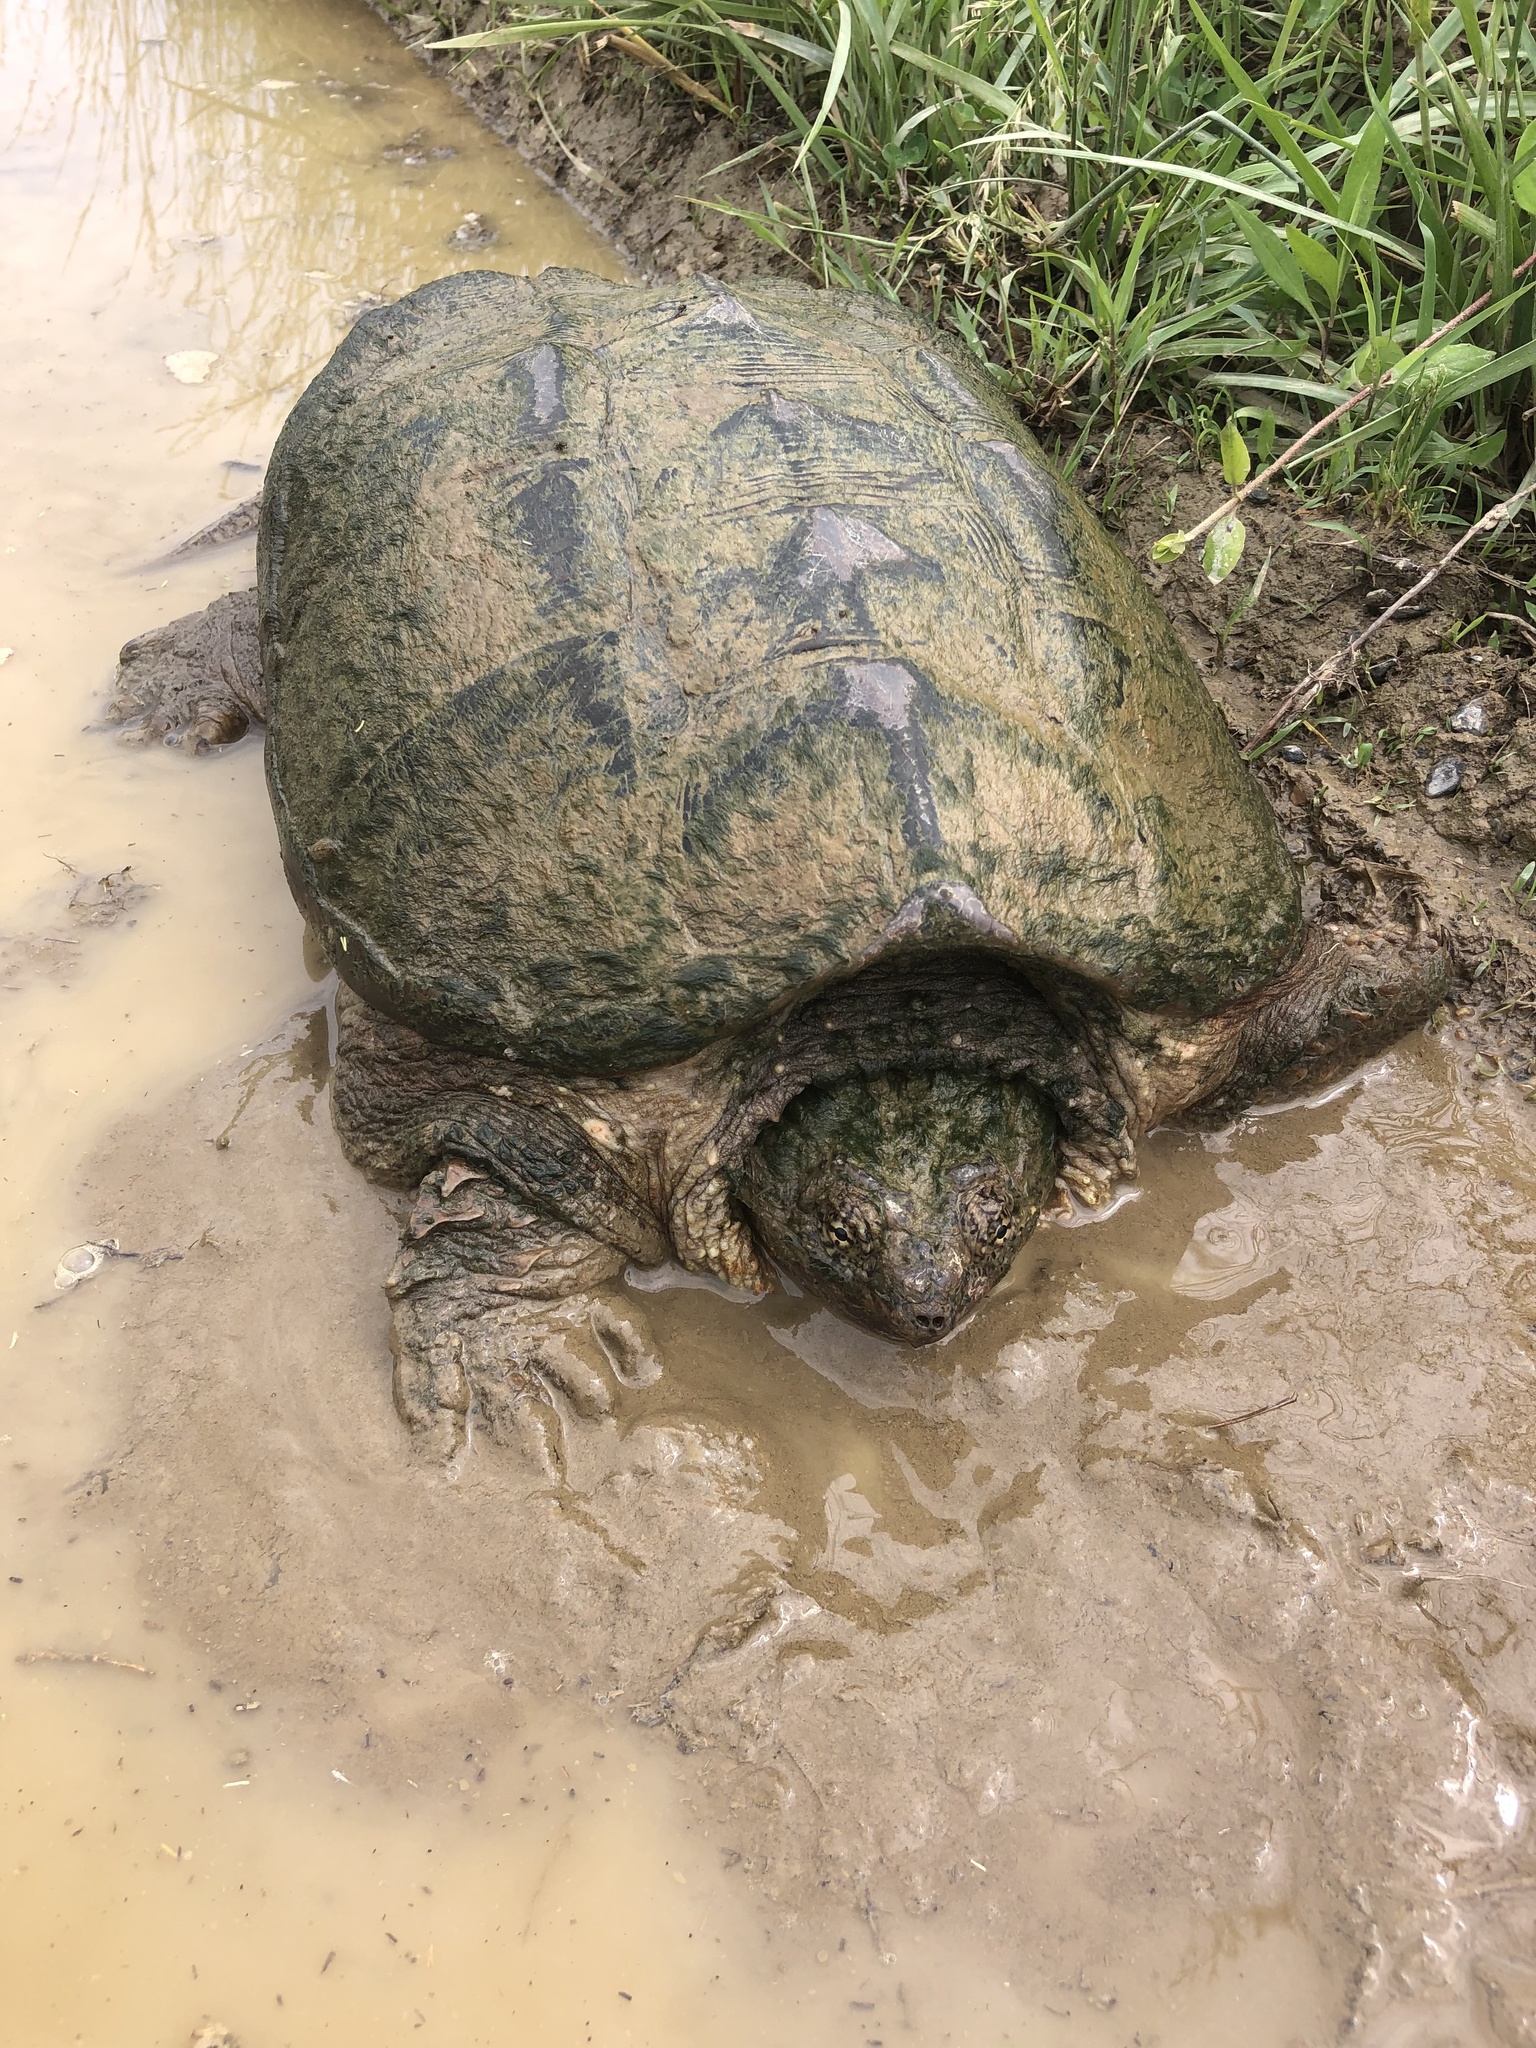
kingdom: Animalia
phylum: Chordata
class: Testudines
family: Chelydridae
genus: Chelydra
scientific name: Chelydra serpentina
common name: Common snapping turtle
